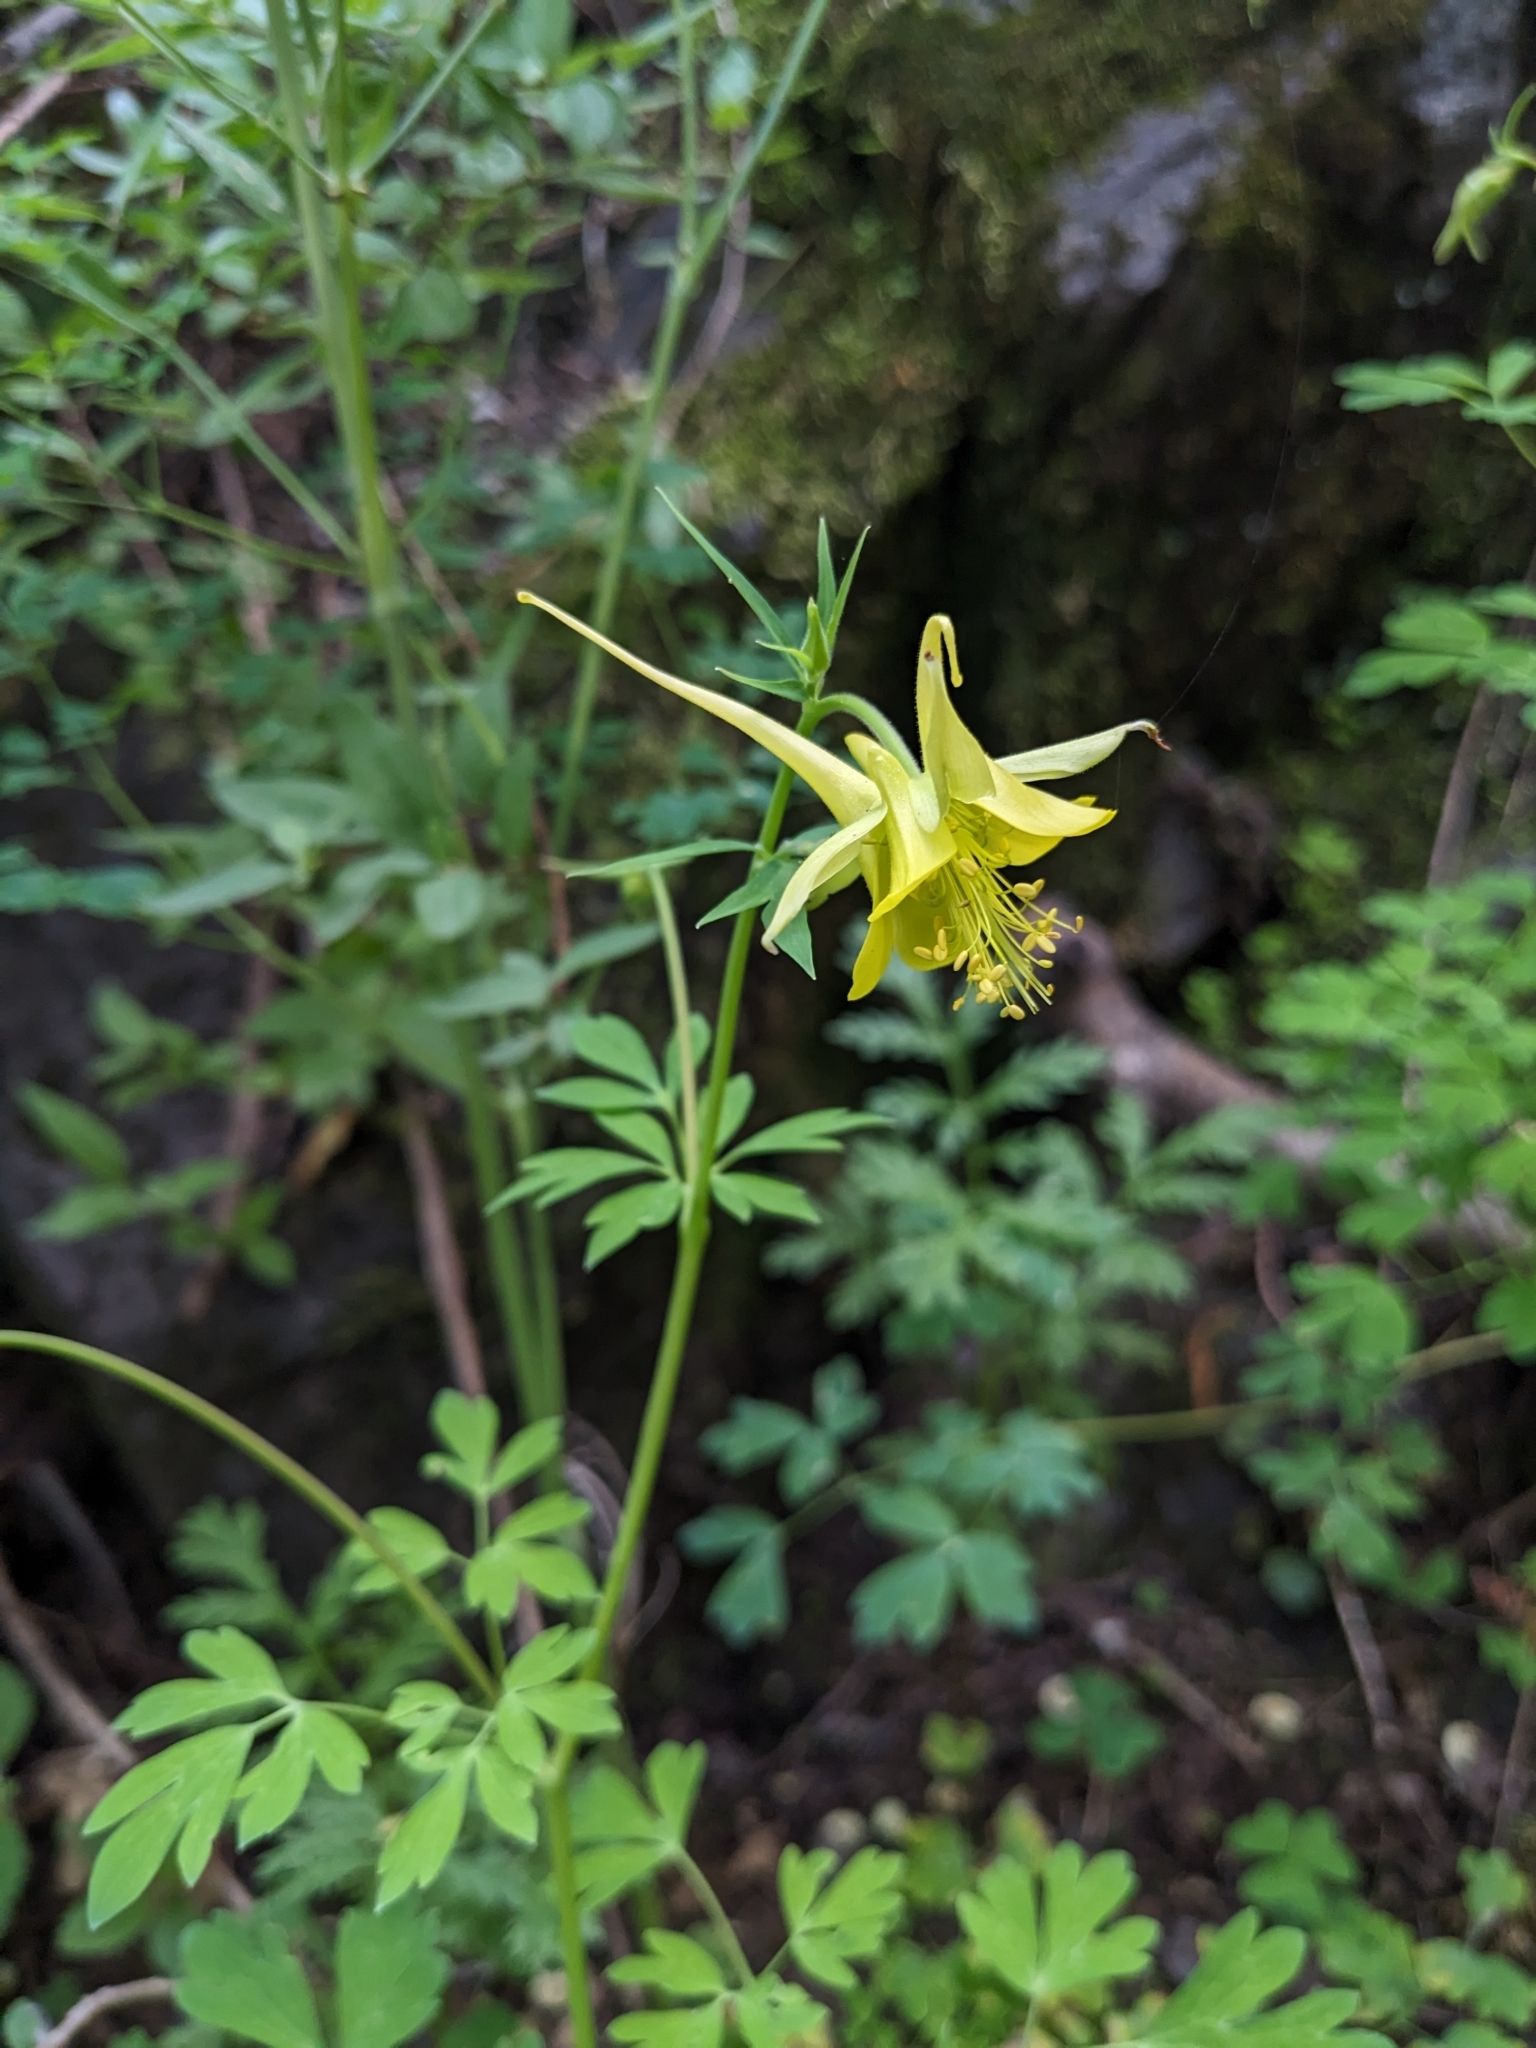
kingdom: Plantae
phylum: Tracheophyta
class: Magnoliopsida
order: Ranunculales
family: Ranunculaceae
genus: Aquilegia
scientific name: Aquilegia chrysantha
